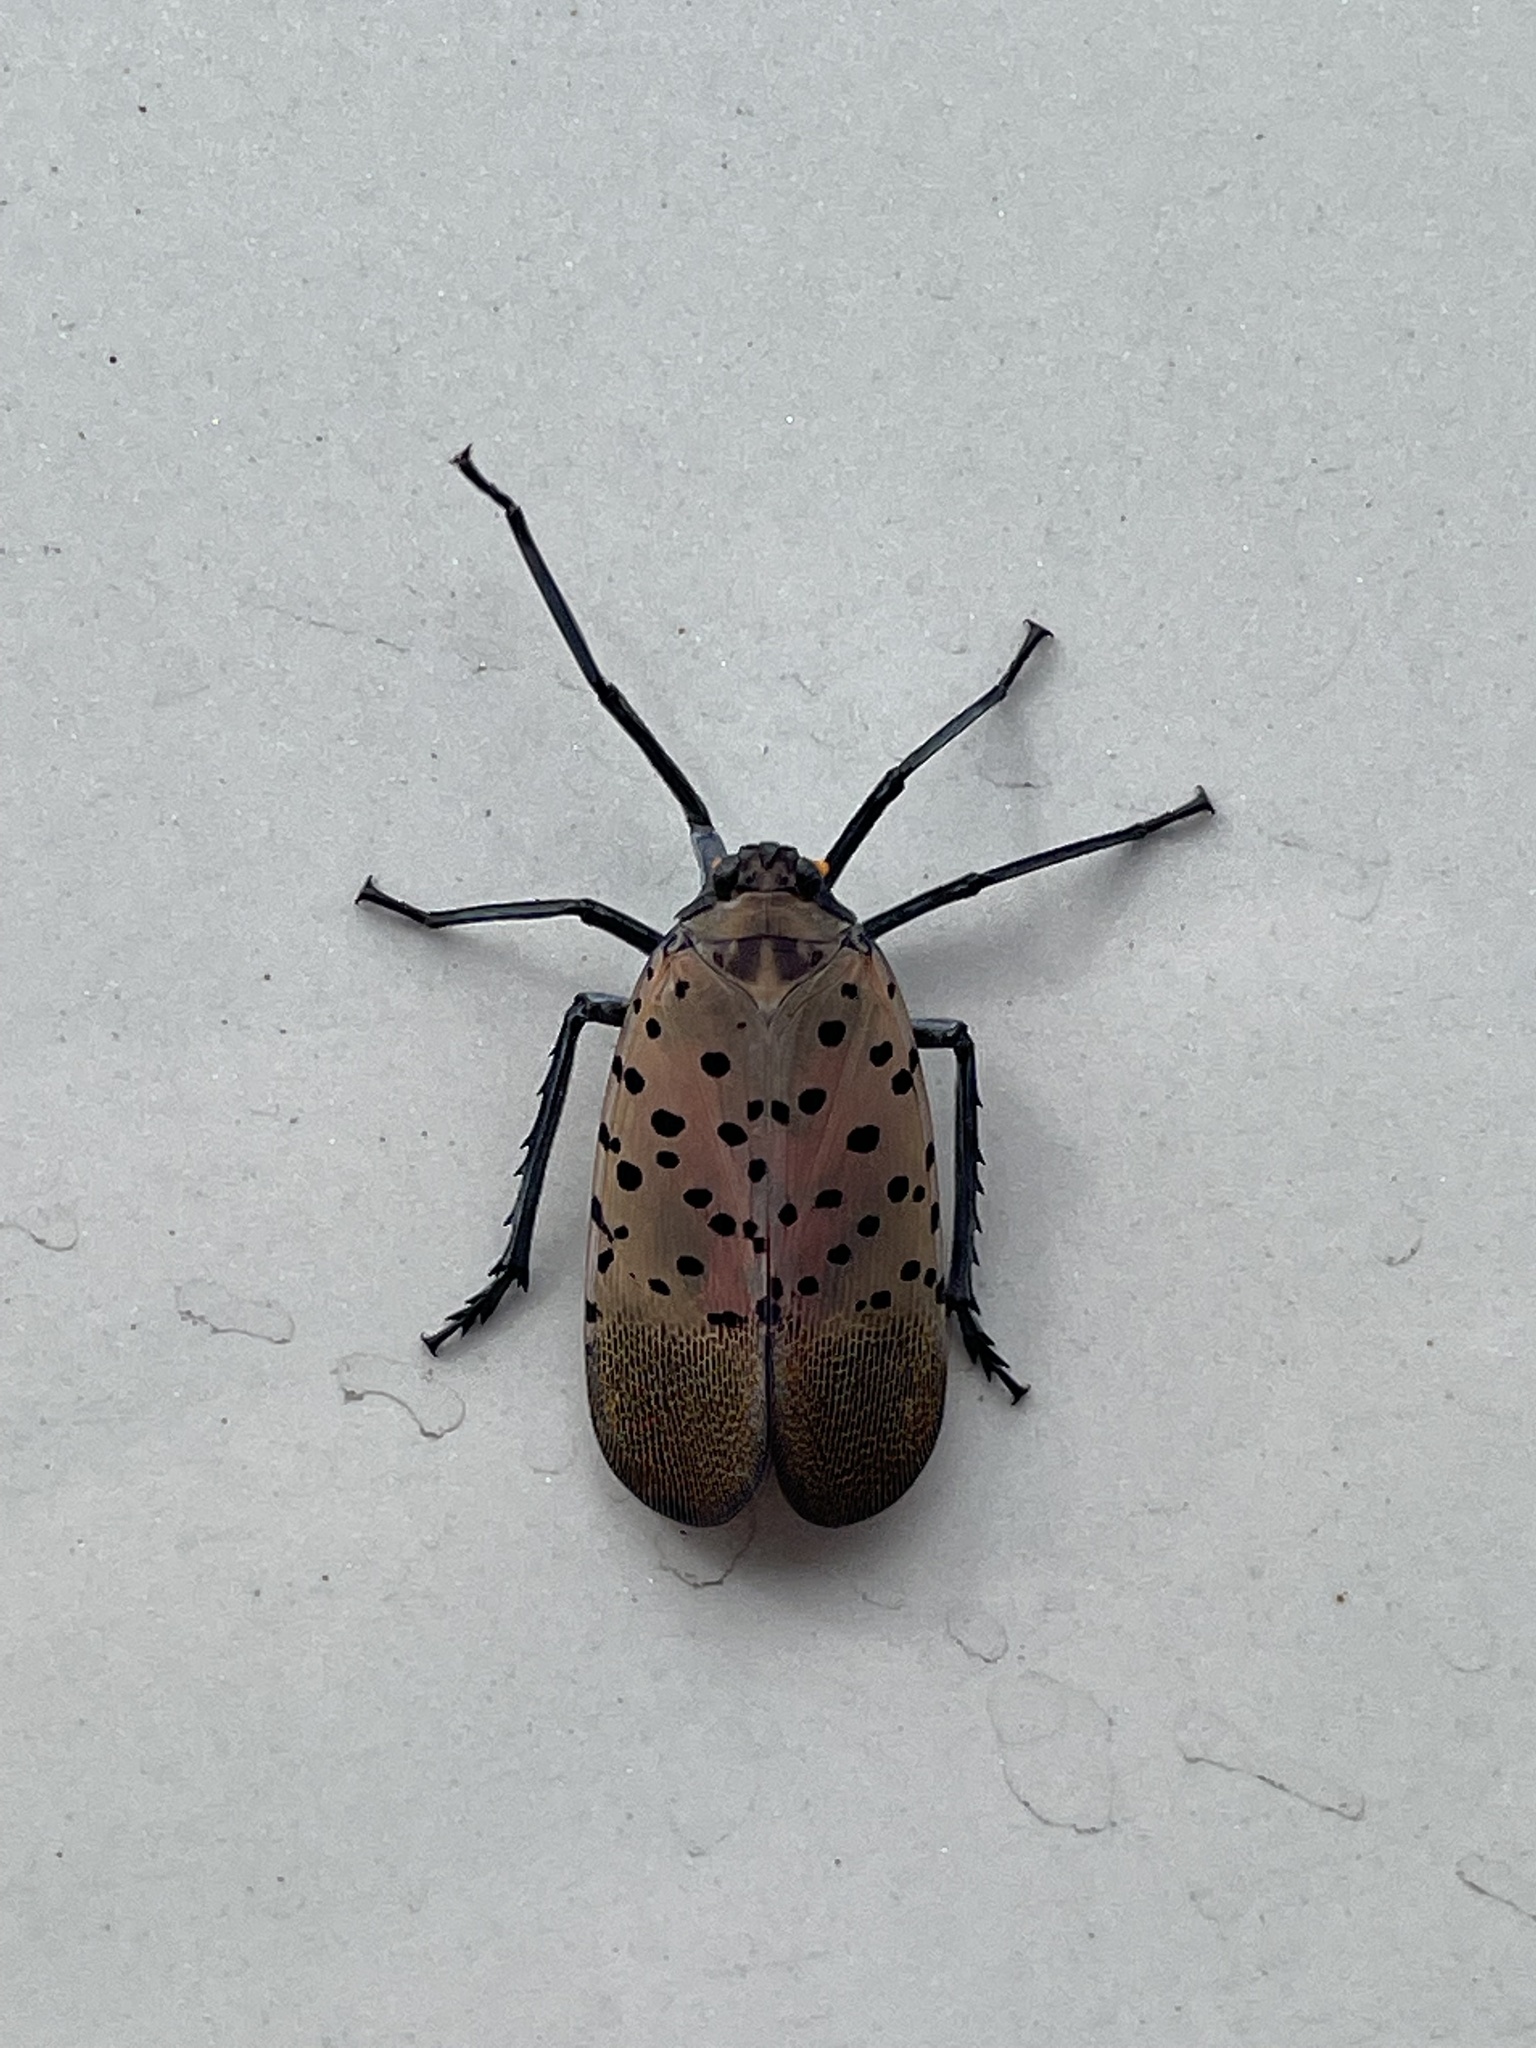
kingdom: Animalia
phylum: Arthropoda
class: Insecta
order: Hemiptera
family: Fulgoridae
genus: Lycorma
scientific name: Lycorma delicatula
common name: Spotted lanternfly
